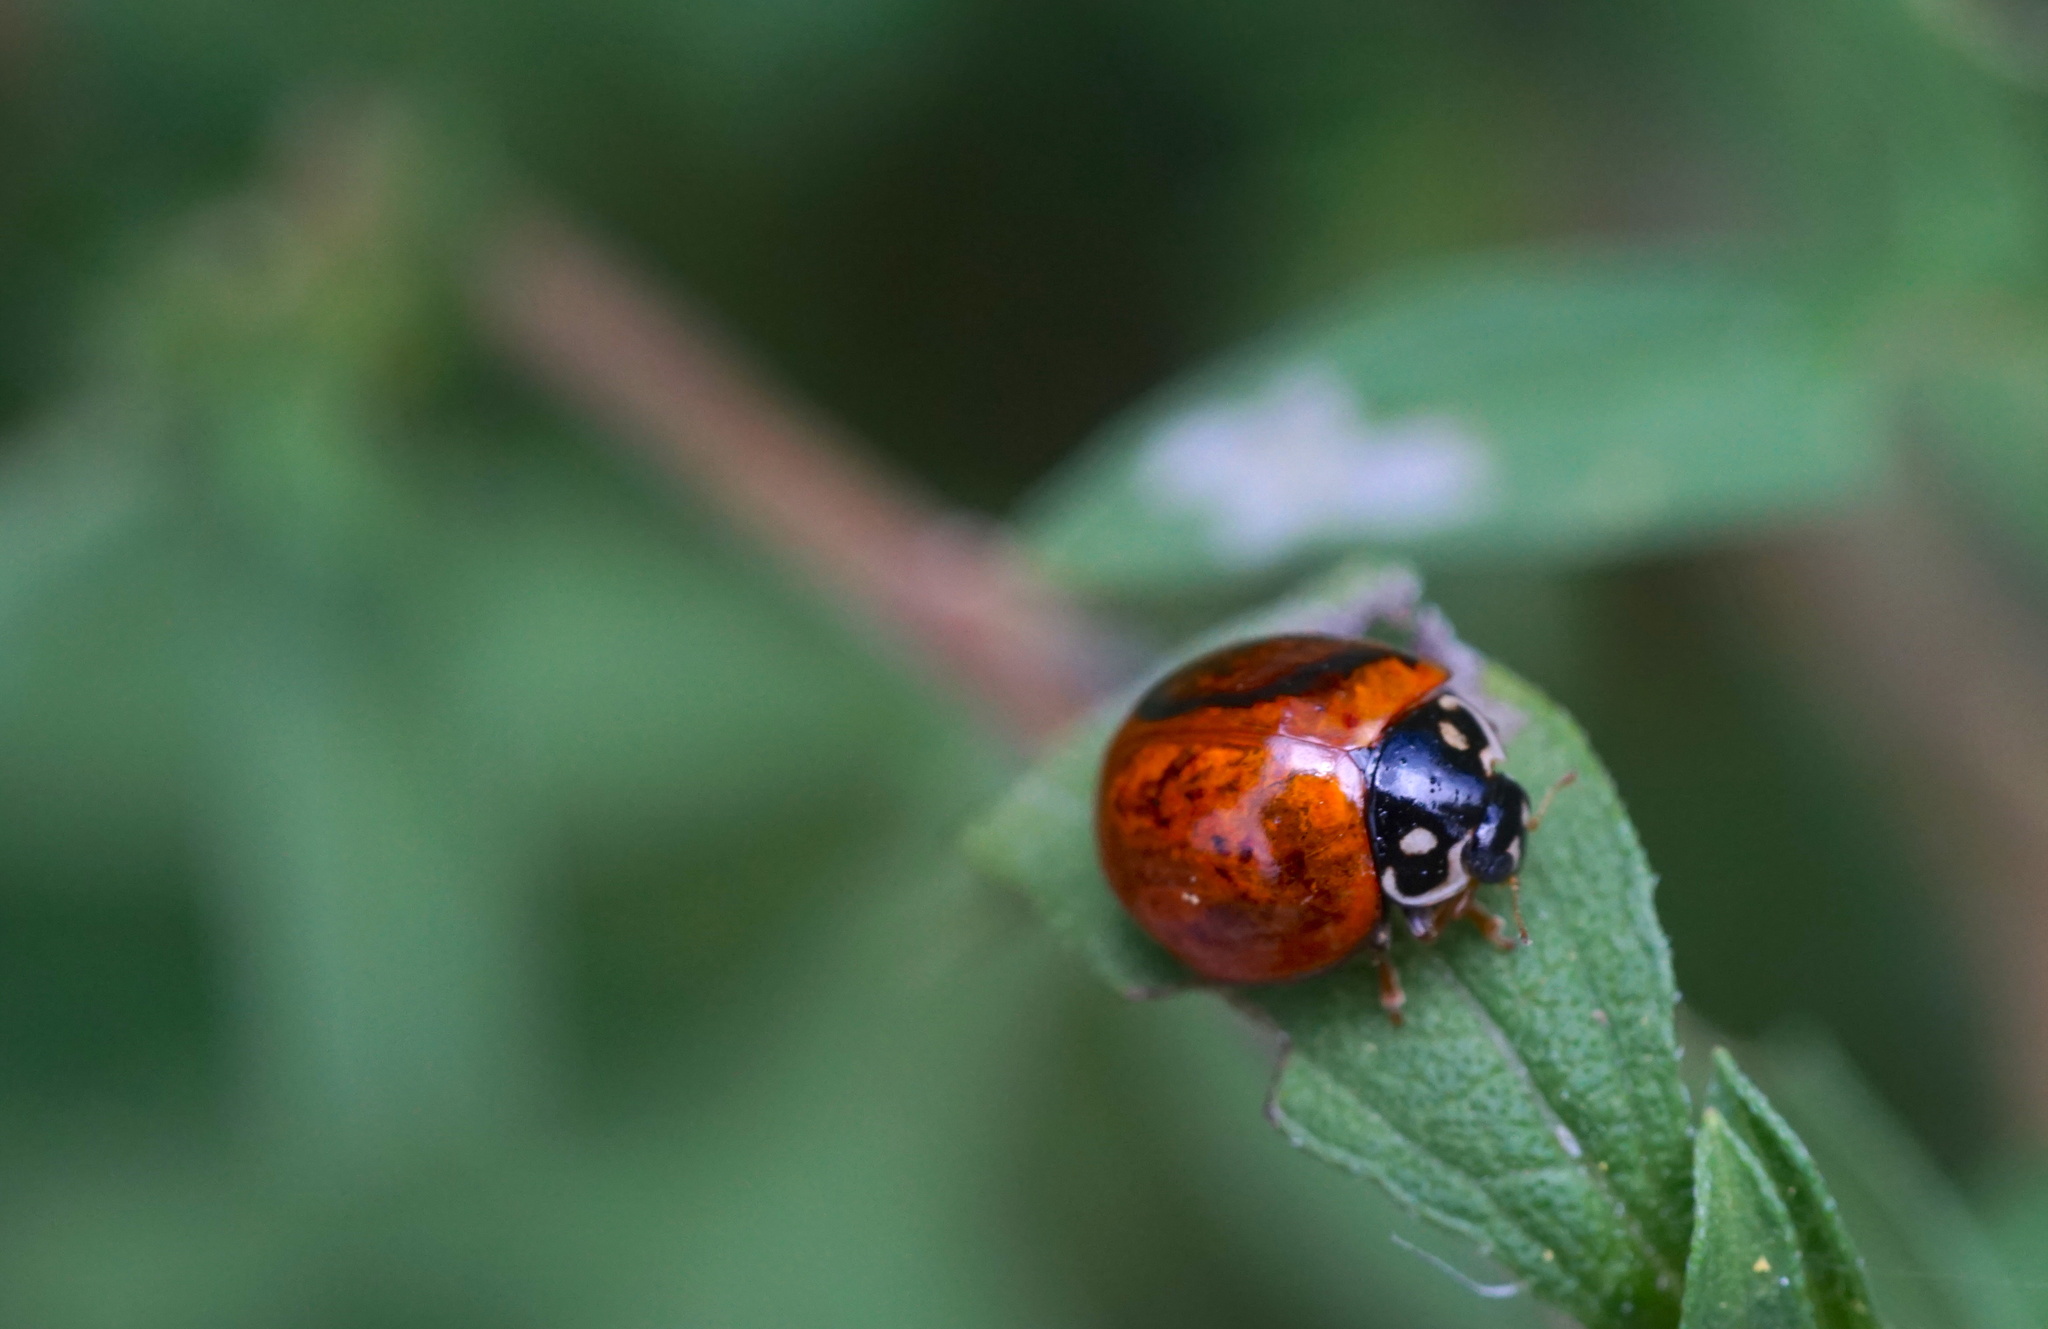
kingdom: Animalia
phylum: Arthropoda
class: Insecta
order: Coleoptera
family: Coccinellidae
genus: Cycloneda
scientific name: Cycloneda sanguinea
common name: Ladybird beetle
